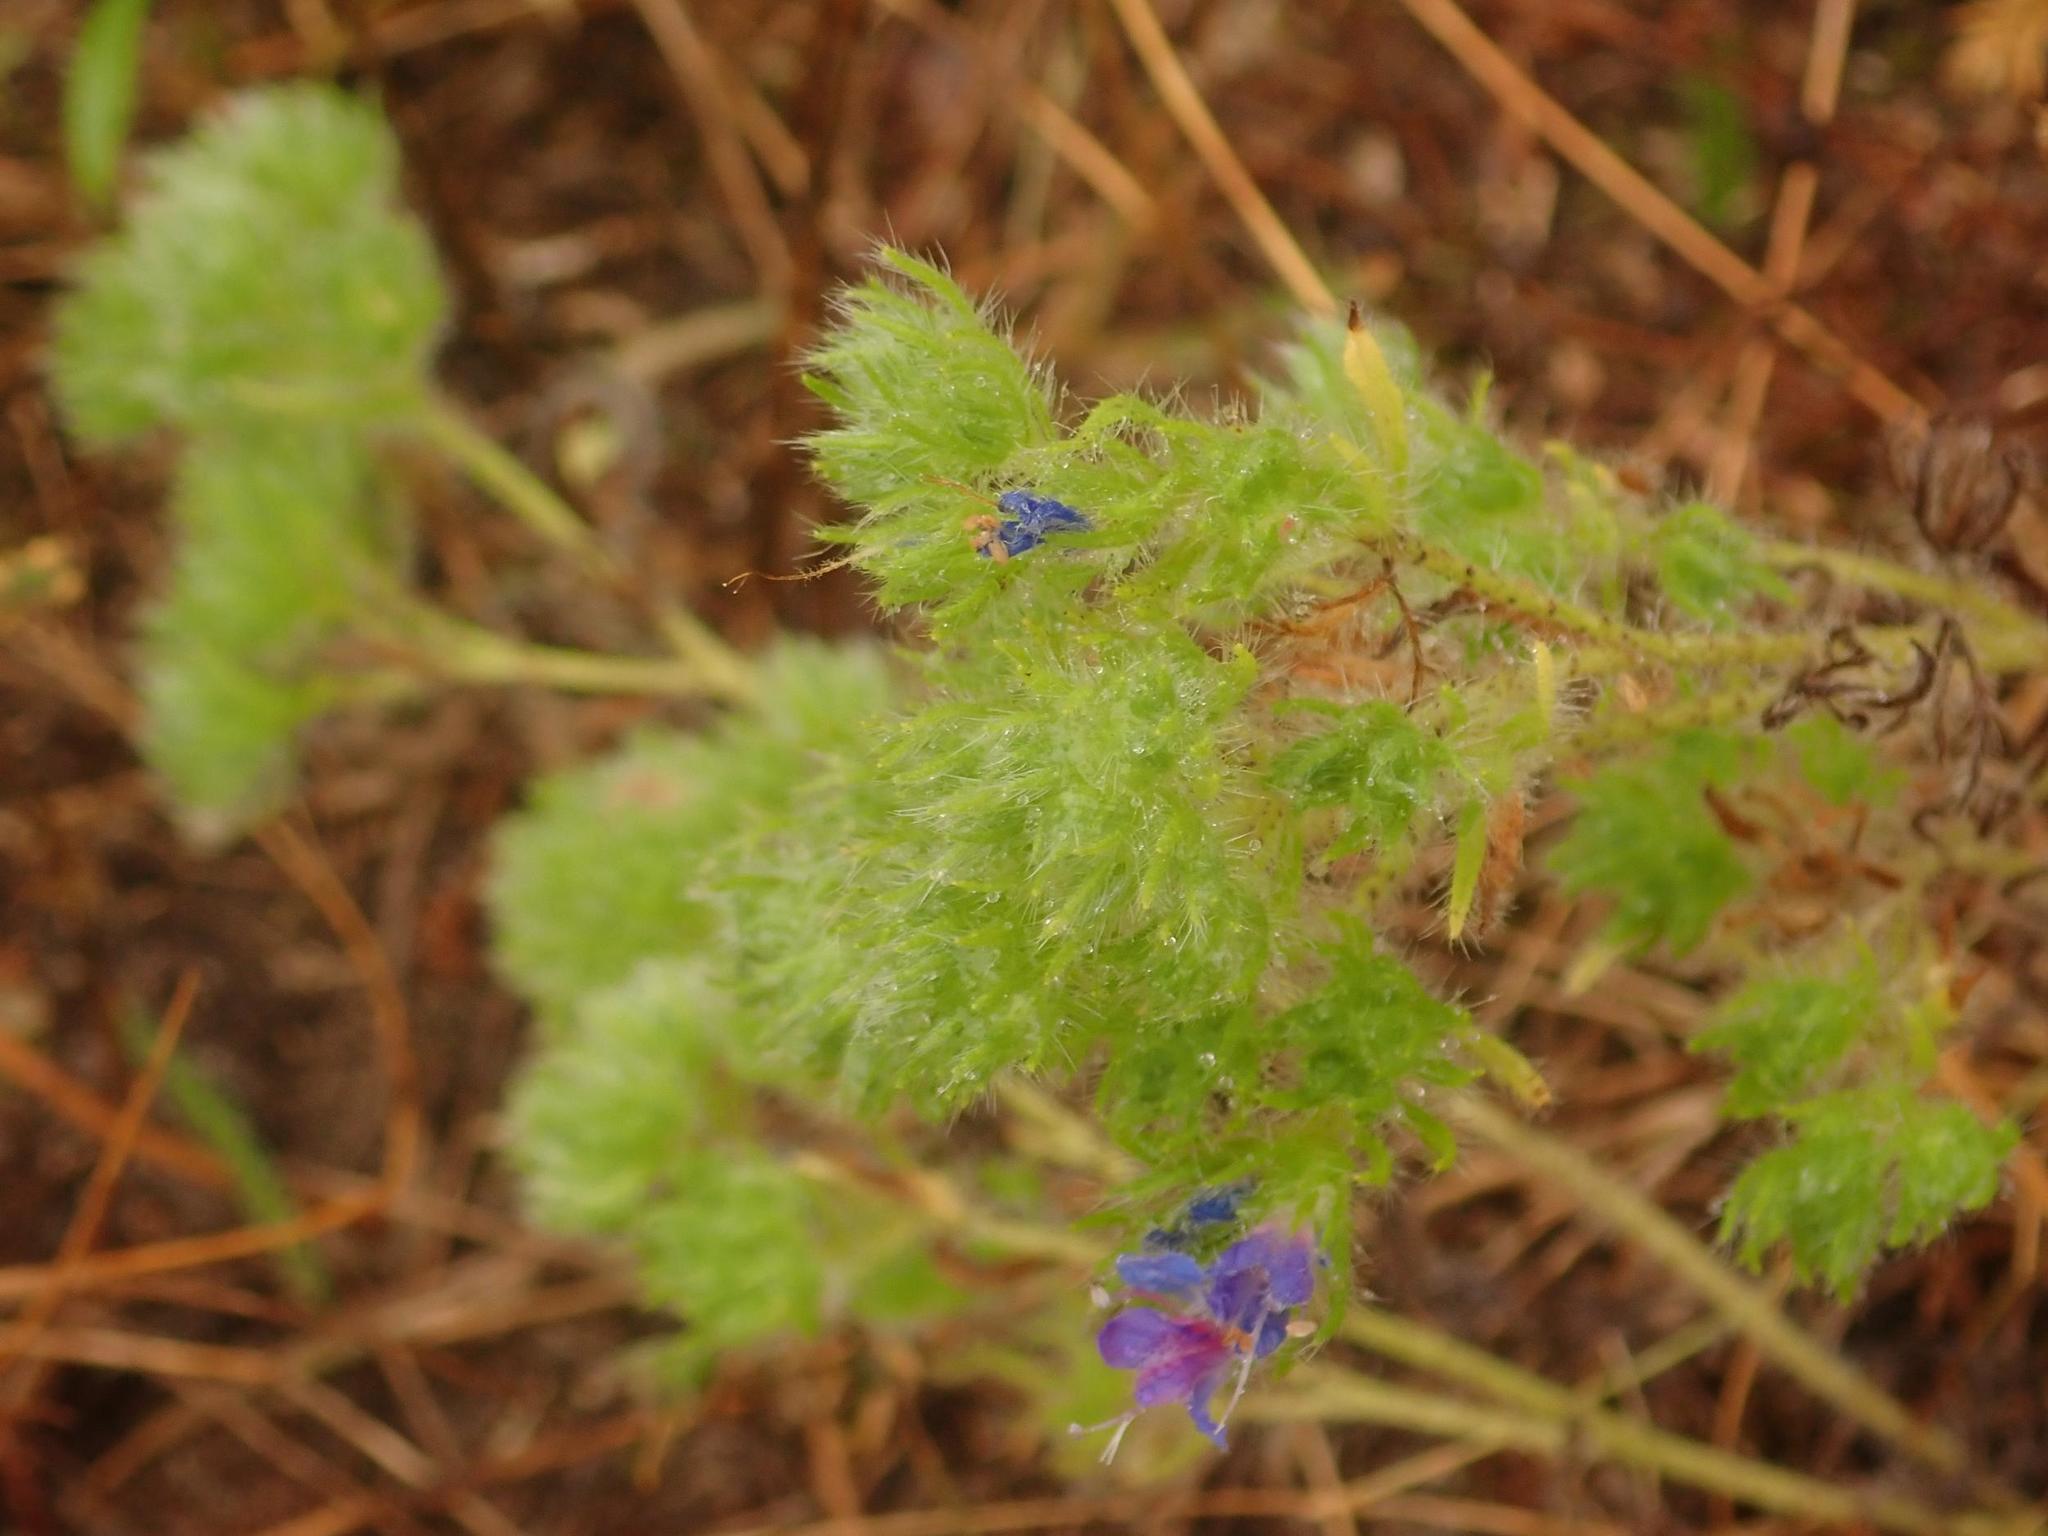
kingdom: Plantae
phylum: Tracheophyta
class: Magnoliopsida
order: Boraginales
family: Boraginaceae
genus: Echium
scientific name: Echium vulgare
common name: Common viper's bugloss
